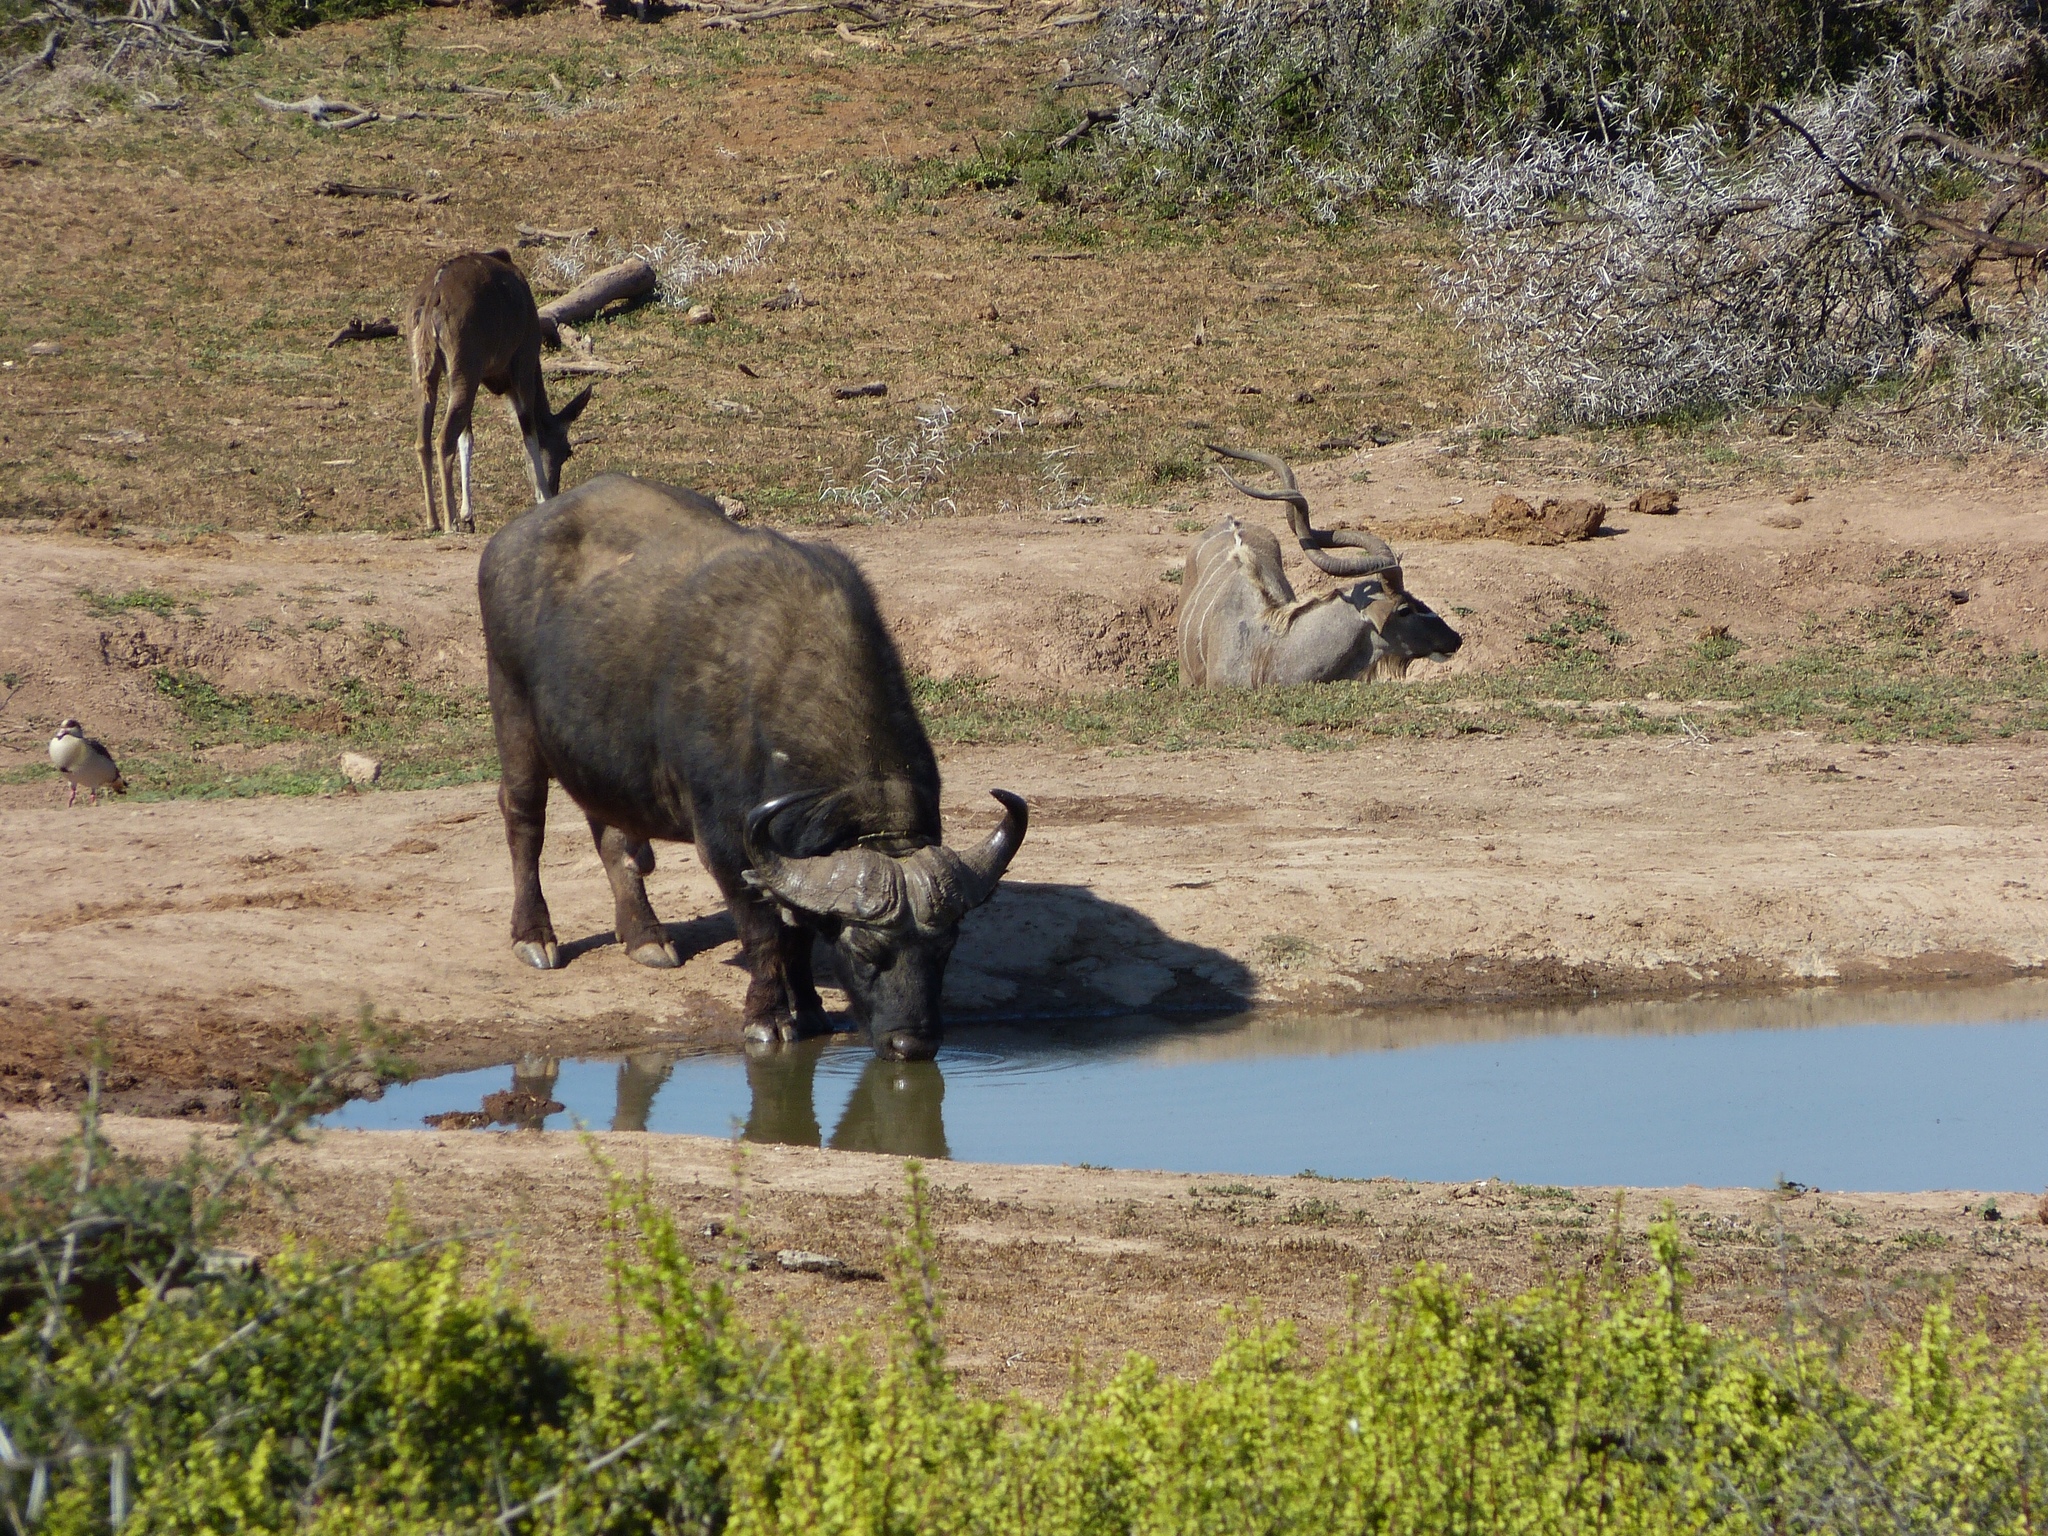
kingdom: Animalia
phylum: Chordata
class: Mammalia
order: Artiodactyla
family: Bovidae
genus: Syncerus
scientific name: Syncerus caffer
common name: African buffalo
